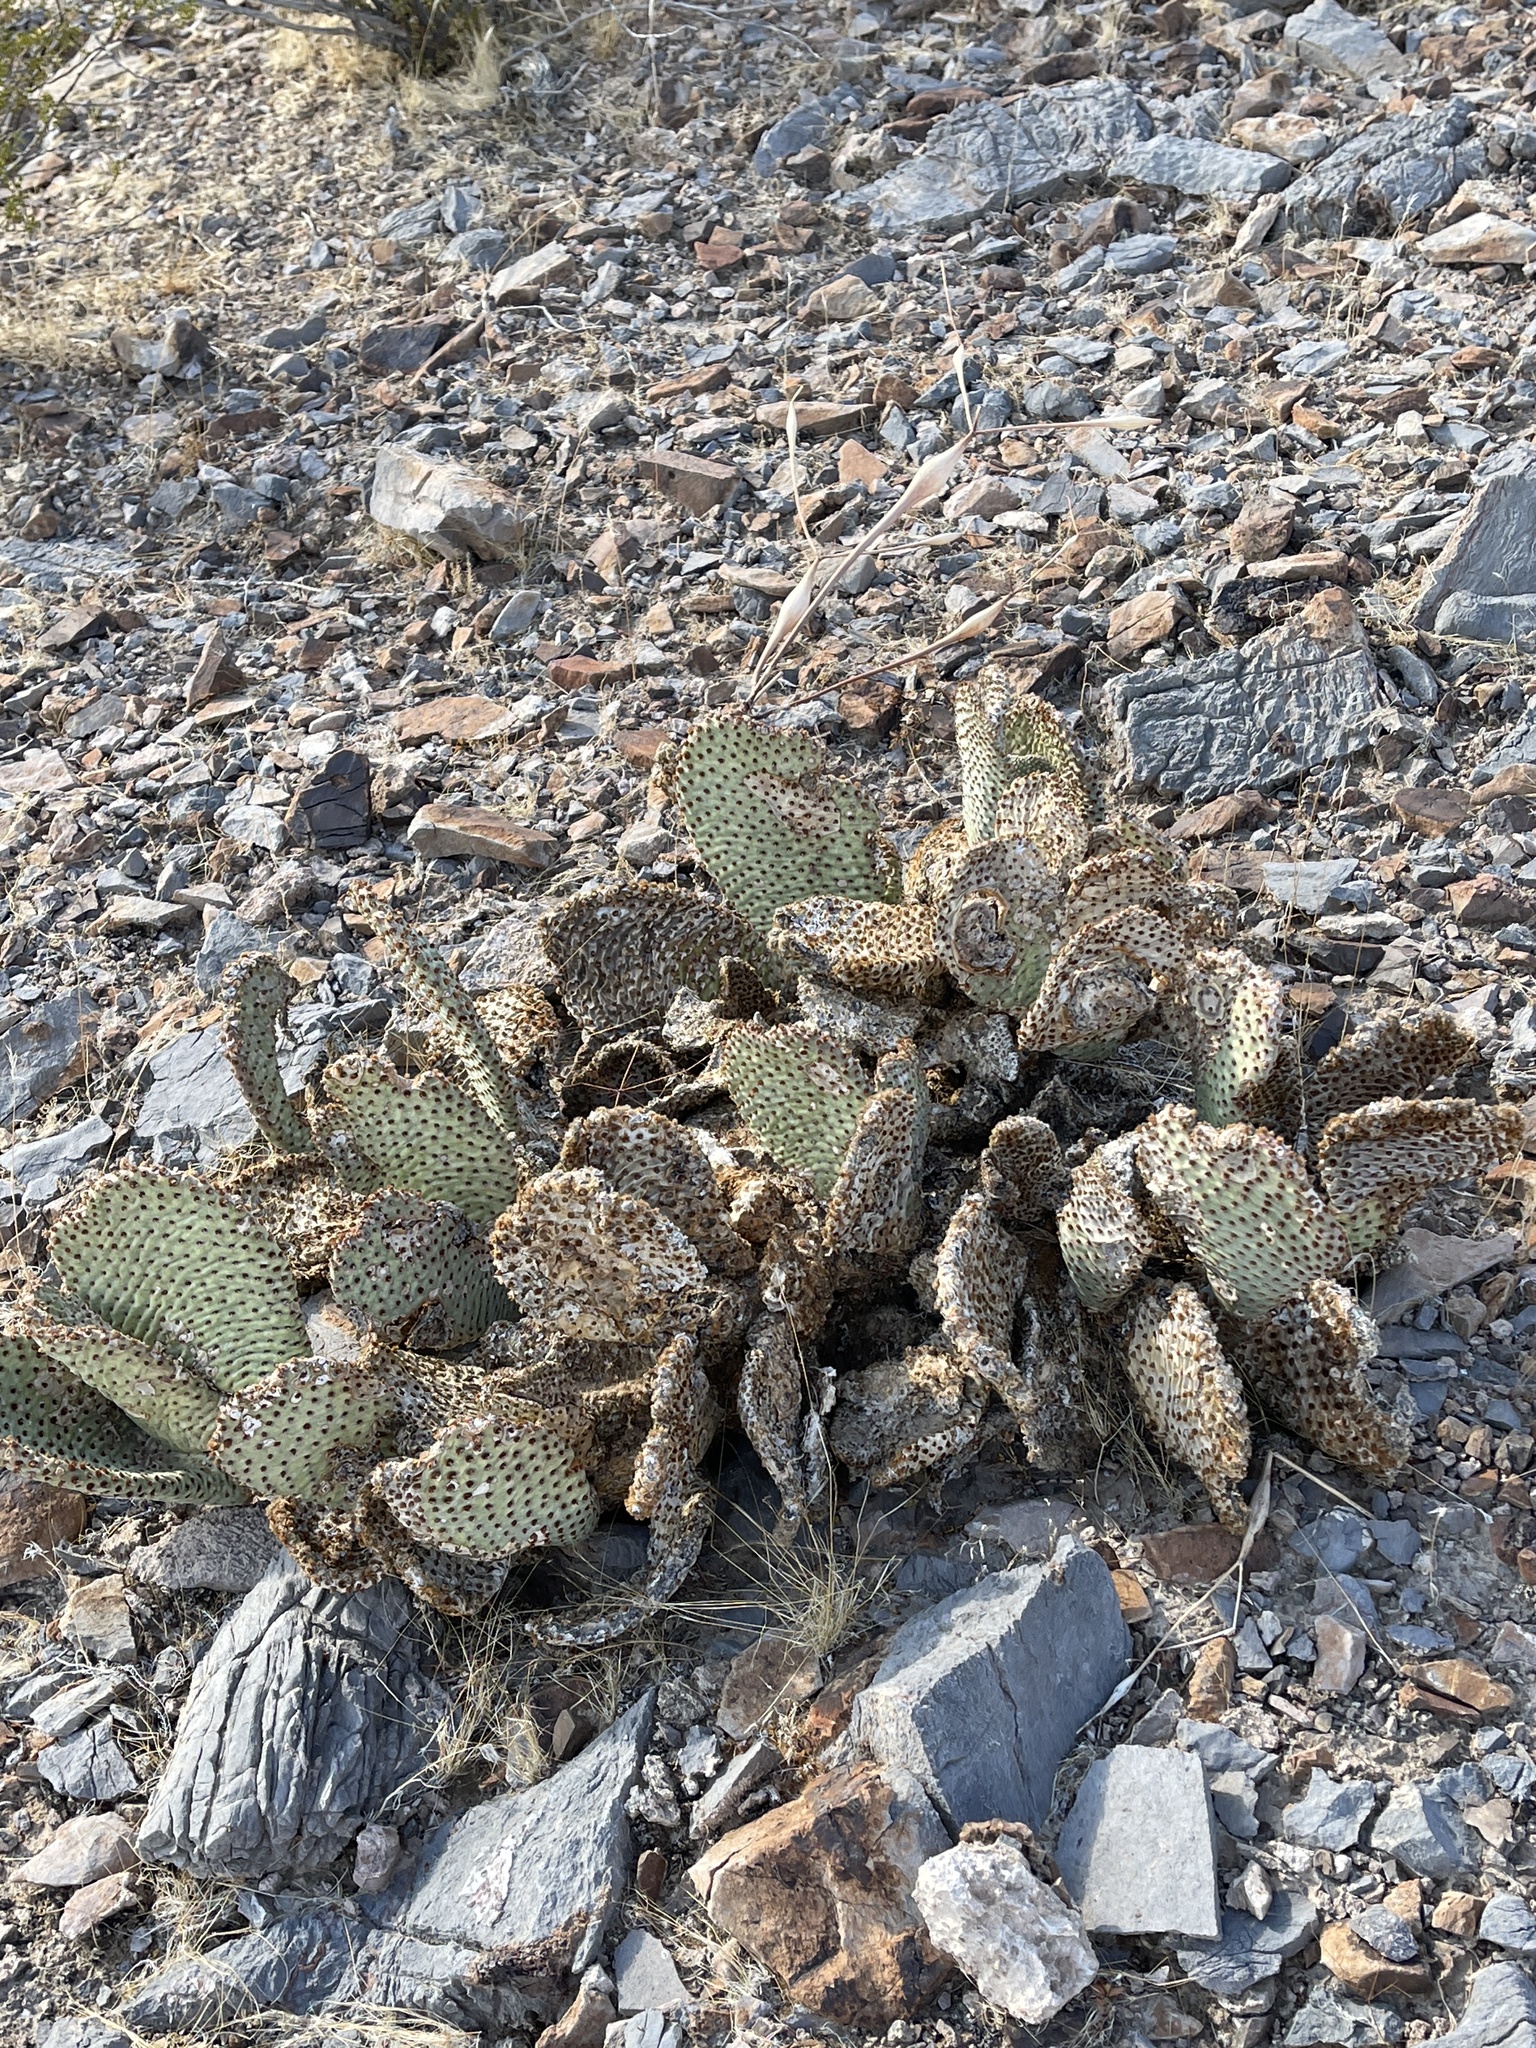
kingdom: Plantae
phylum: Tracheophyta
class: Magnoliopsida
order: Caryophyllales
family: Cactaceae
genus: Opuntia
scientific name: Opuntia basilaris
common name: Beavertail prickly-pear
